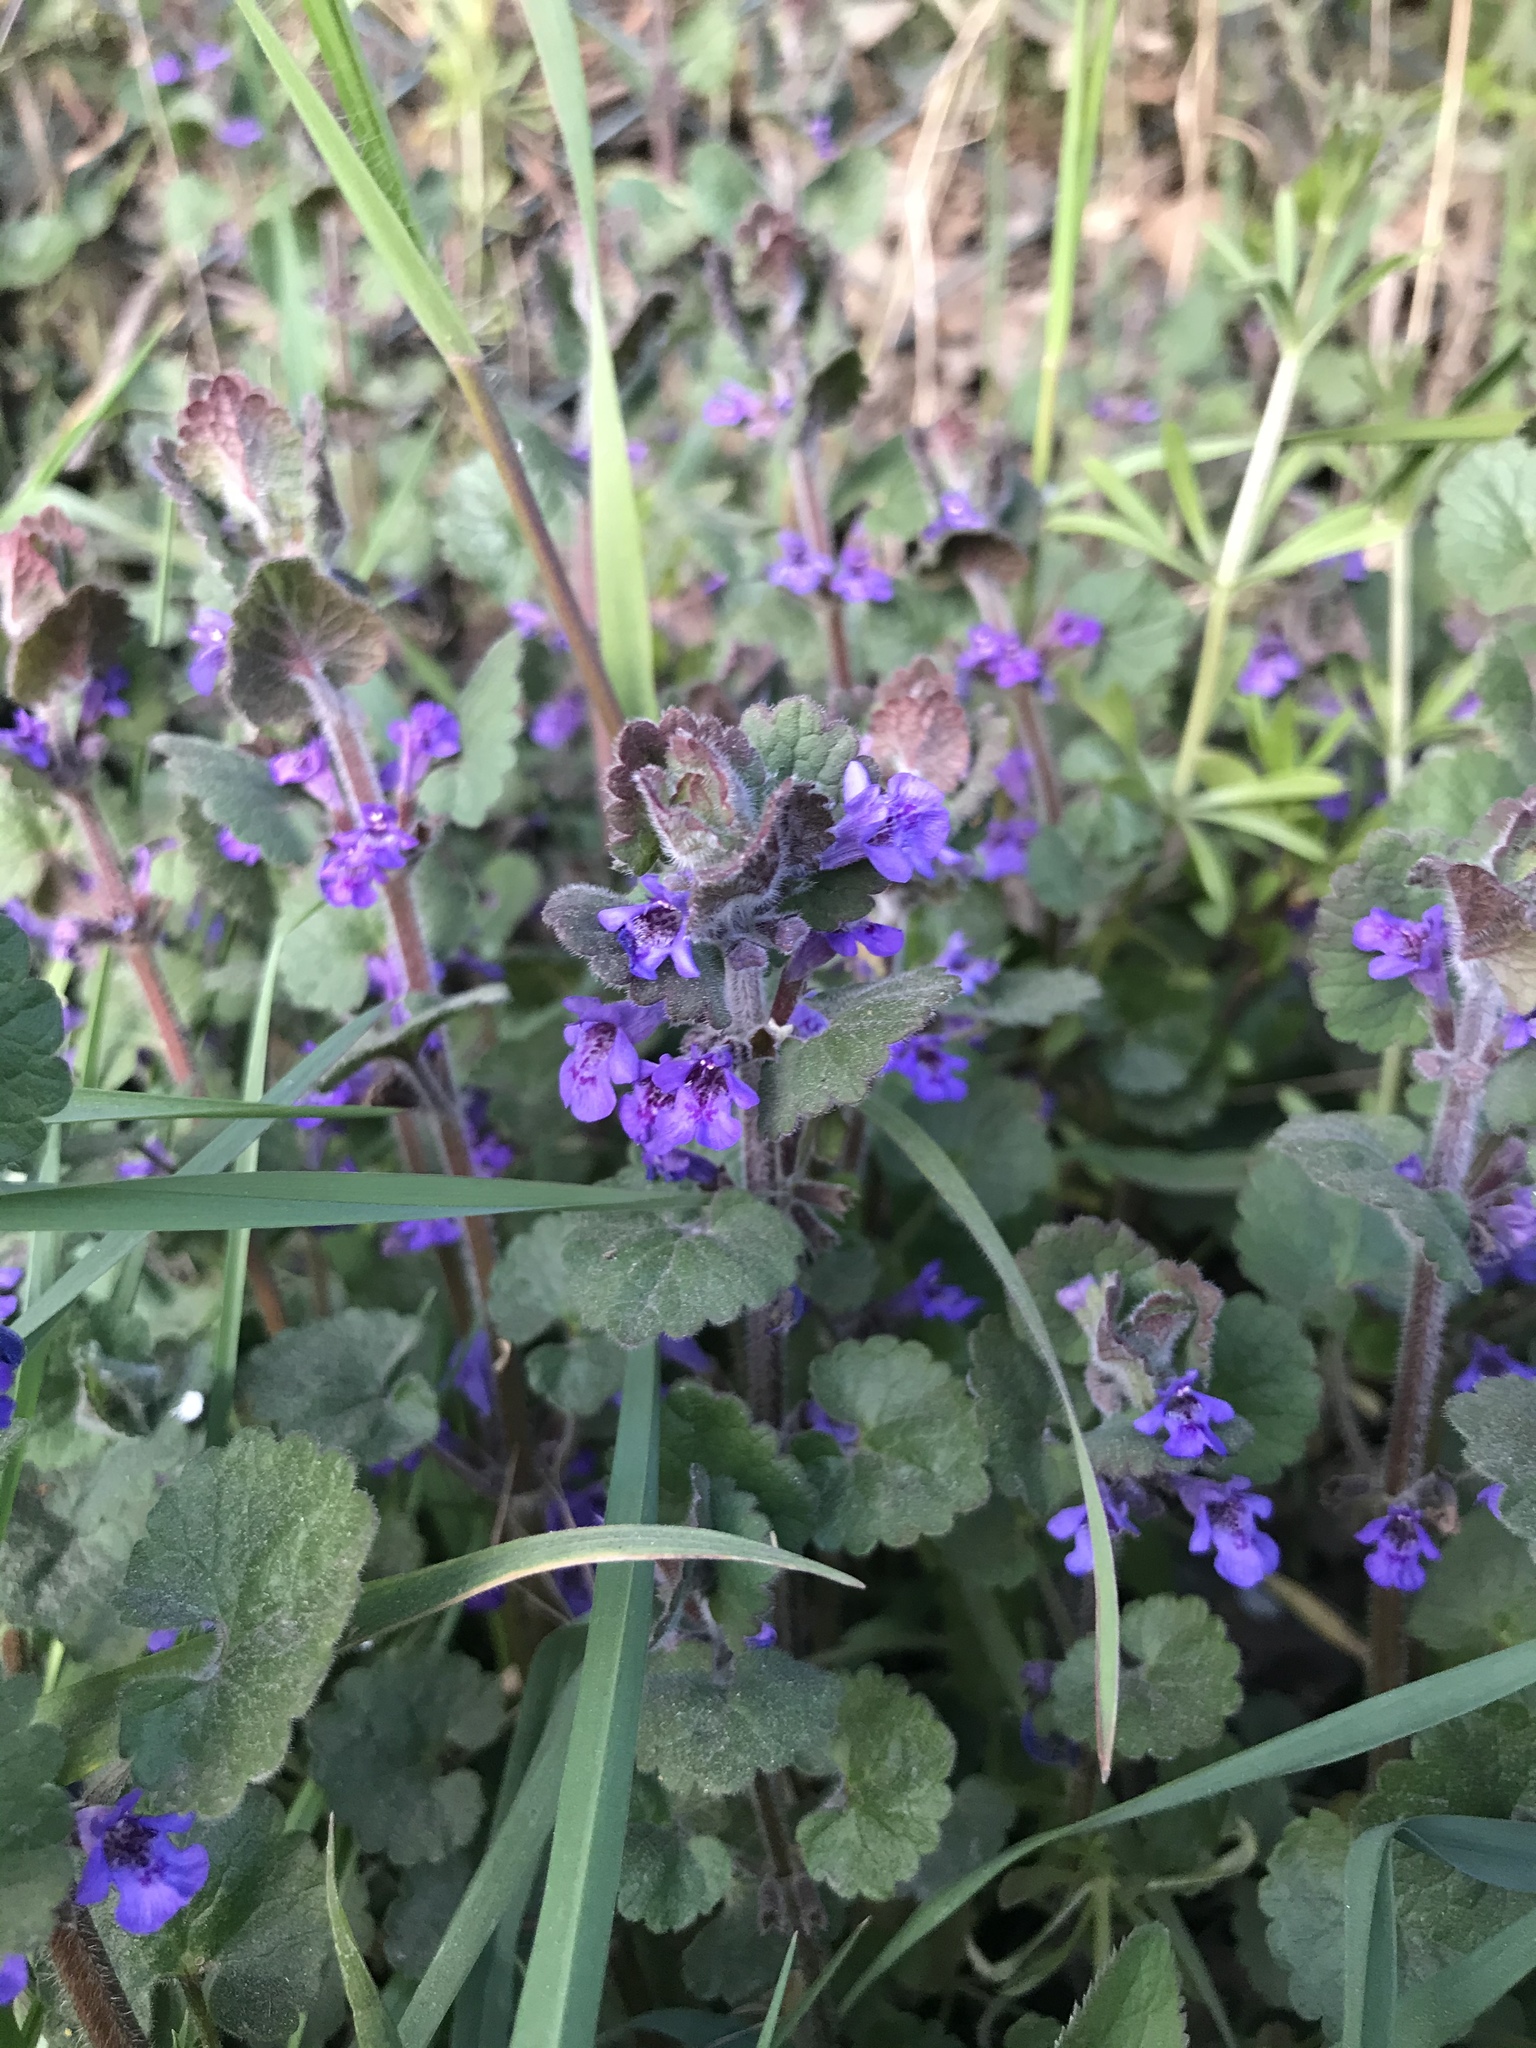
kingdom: Plantae
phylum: Tracheophyta
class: Magnoliopsida
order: Lamiales
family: Lamiaceae
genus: Glechoma
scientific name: Glechoma hederacea
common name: Ground ivy
